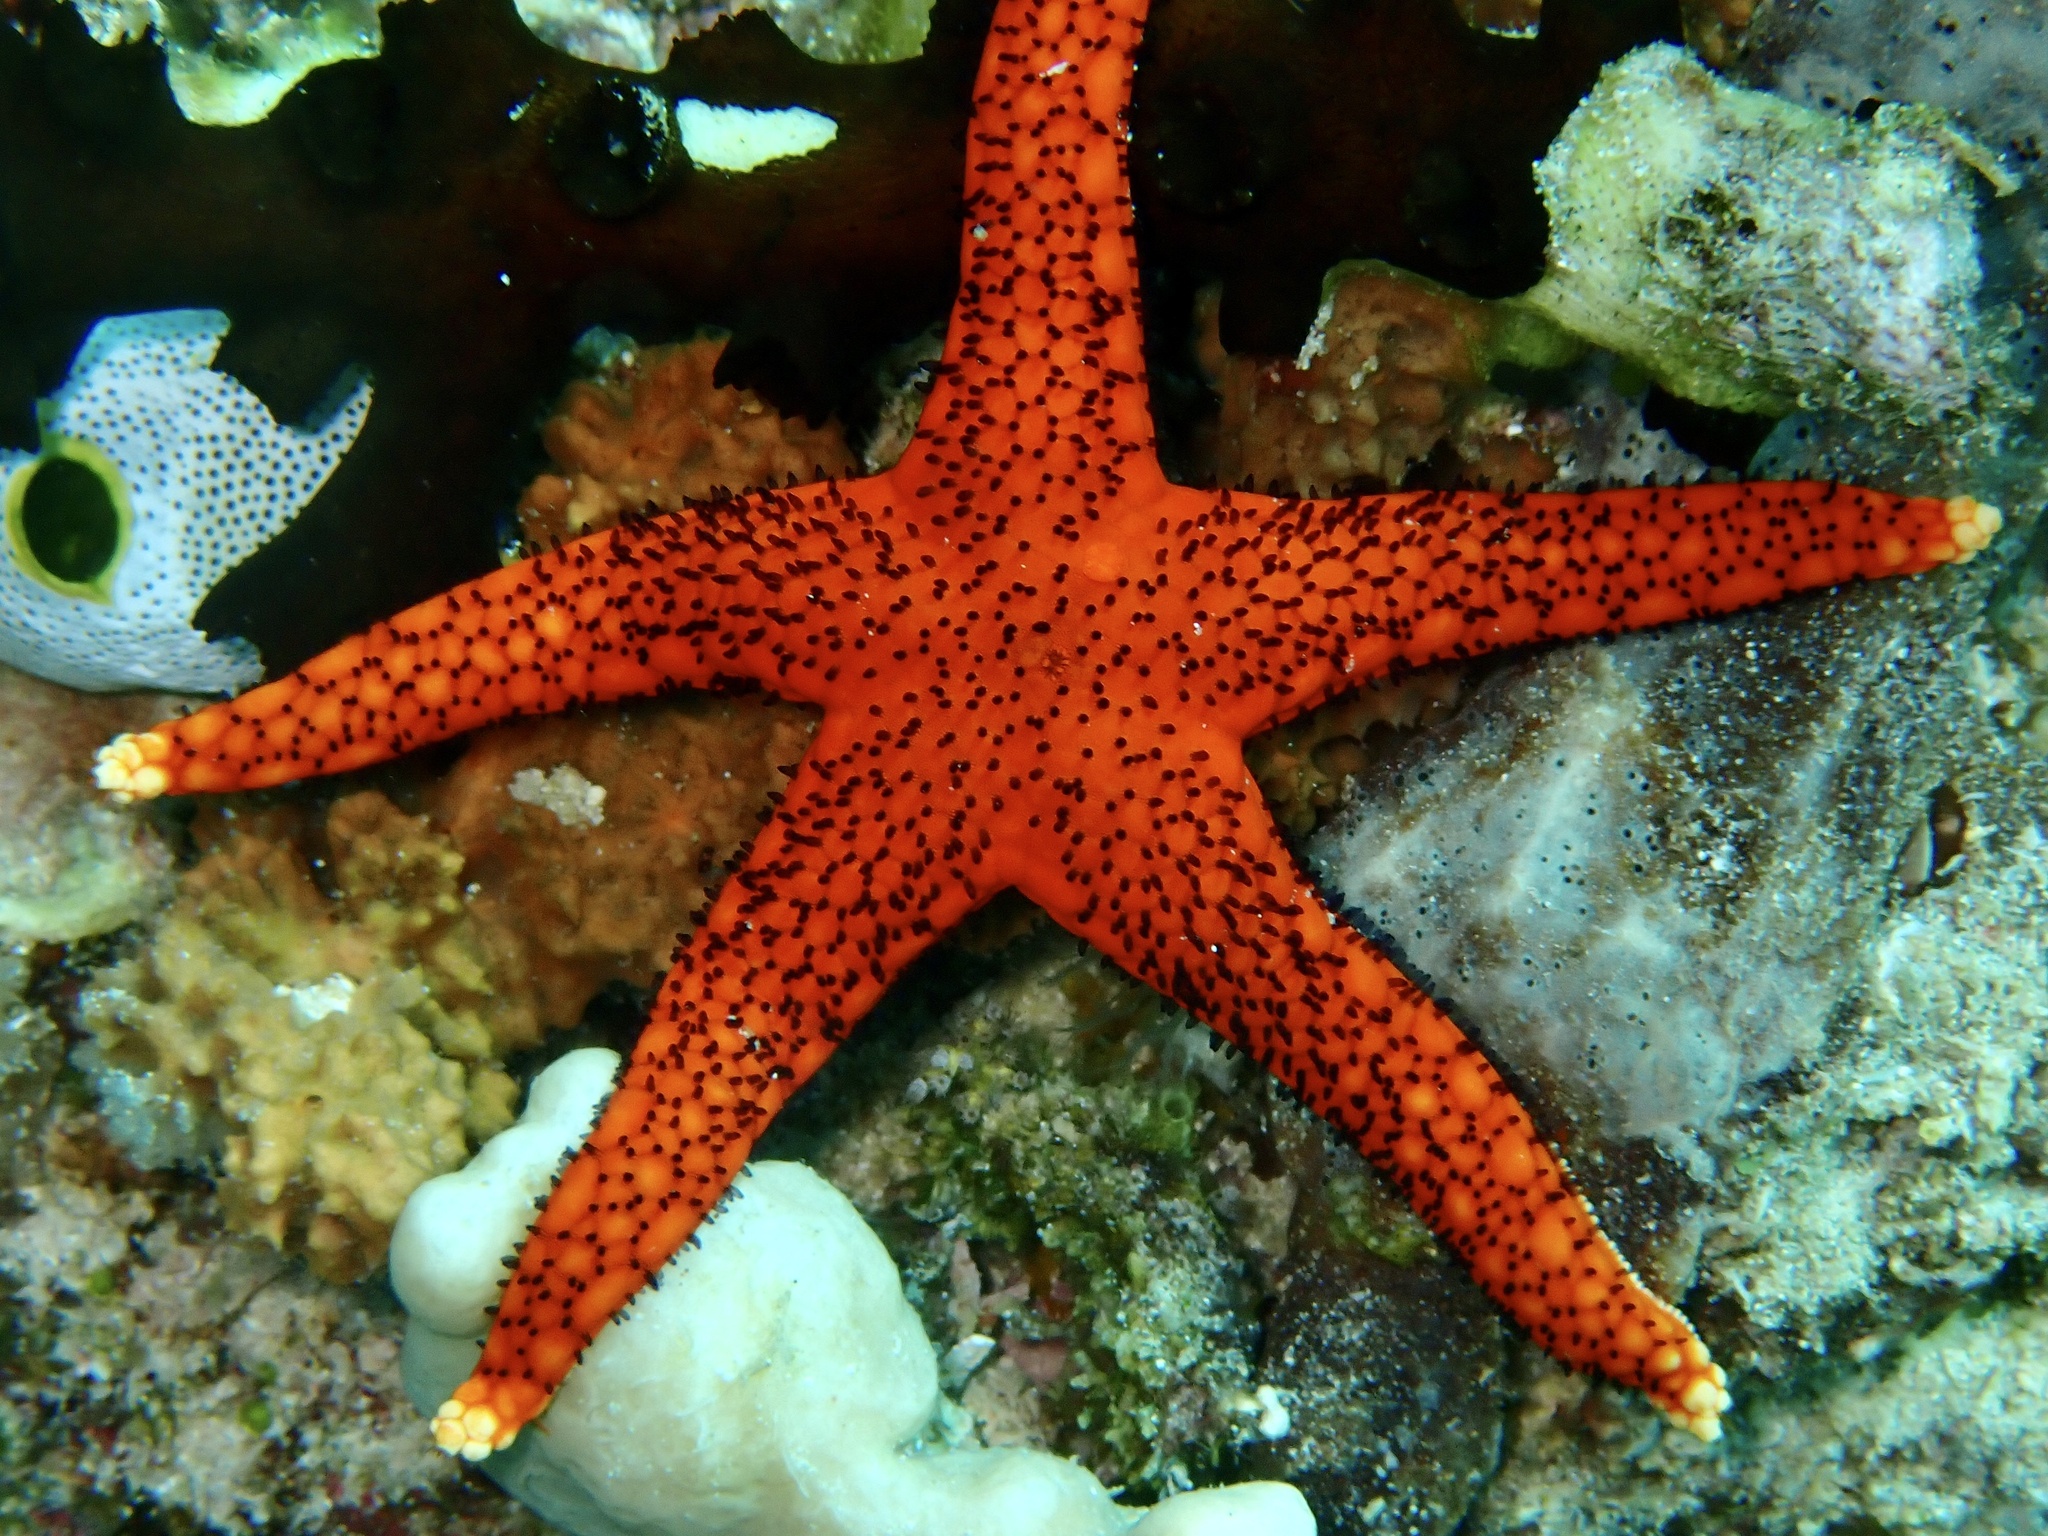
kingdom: Animalia
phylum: Echinodermata
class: Asteroidea
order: Valvatida
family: Goniasteridae
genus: Fromia
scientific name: Fromia milleporella
